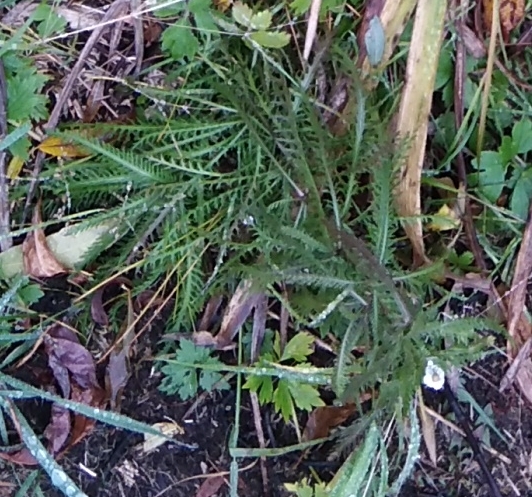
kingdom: Plantae
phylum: Tracheophyta
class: Magnoliopsida
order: Asterales
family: Asteraceae
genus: Achillea
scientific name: Achillea millefolium
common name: Yarrow
